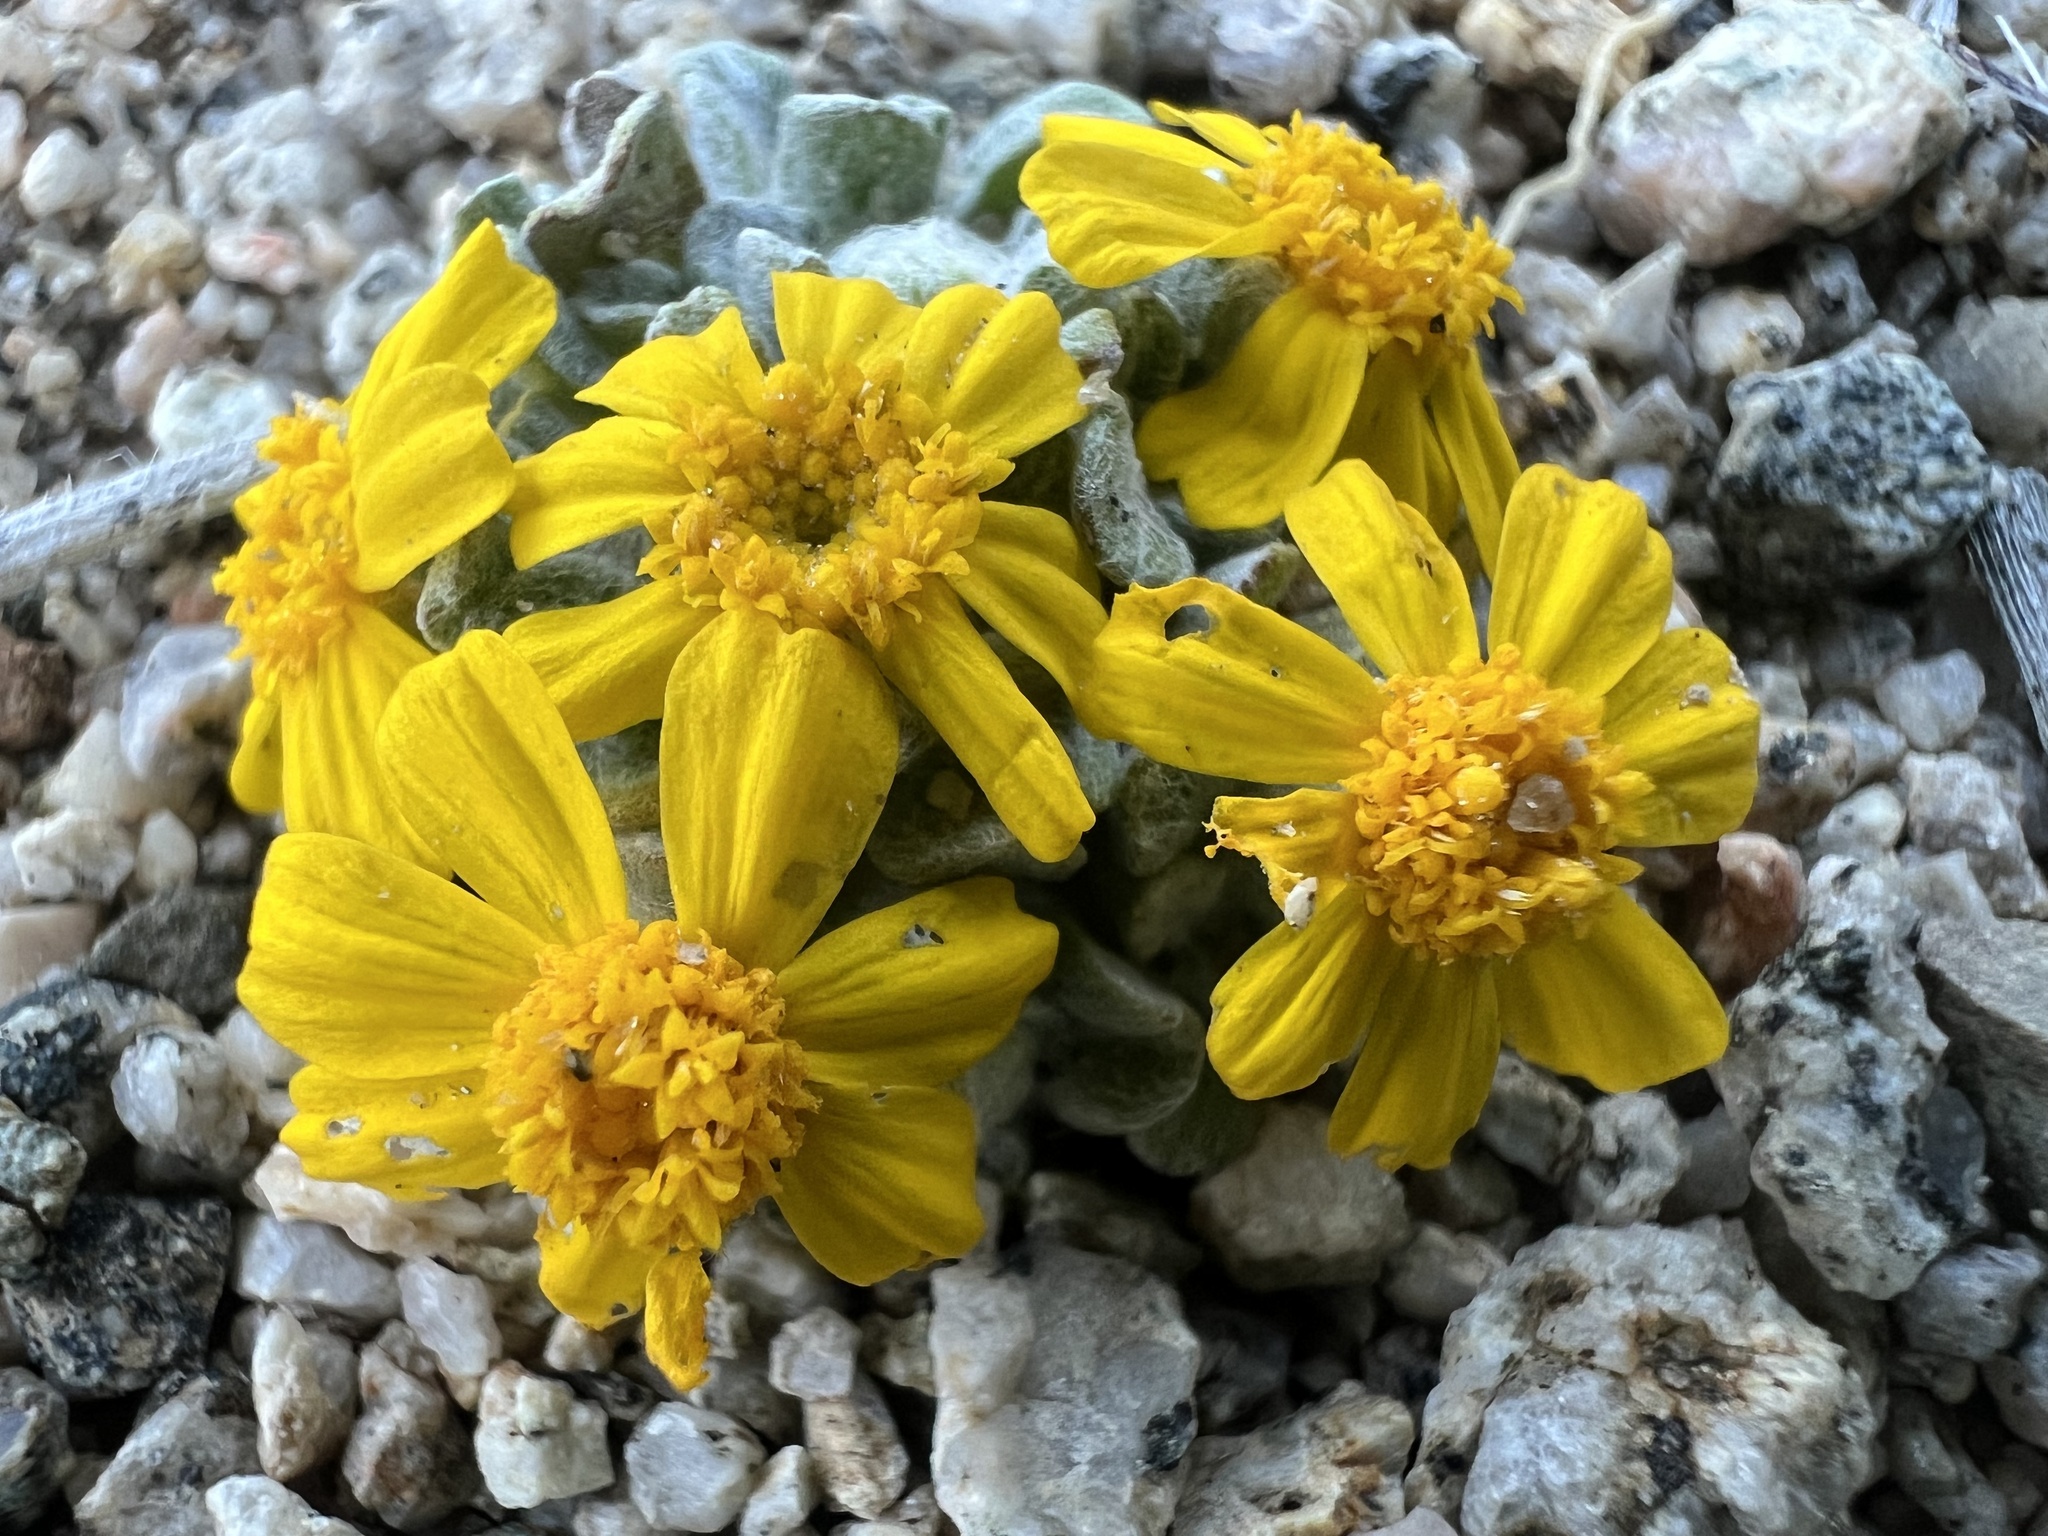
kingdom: Plantae
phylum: Tracheophyta
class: Magnoliopsida
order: Asterales
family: Asteraceae
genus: Eriophyllum
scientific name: Eriophyllum wallacei
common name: Wallace's woolly daisy
